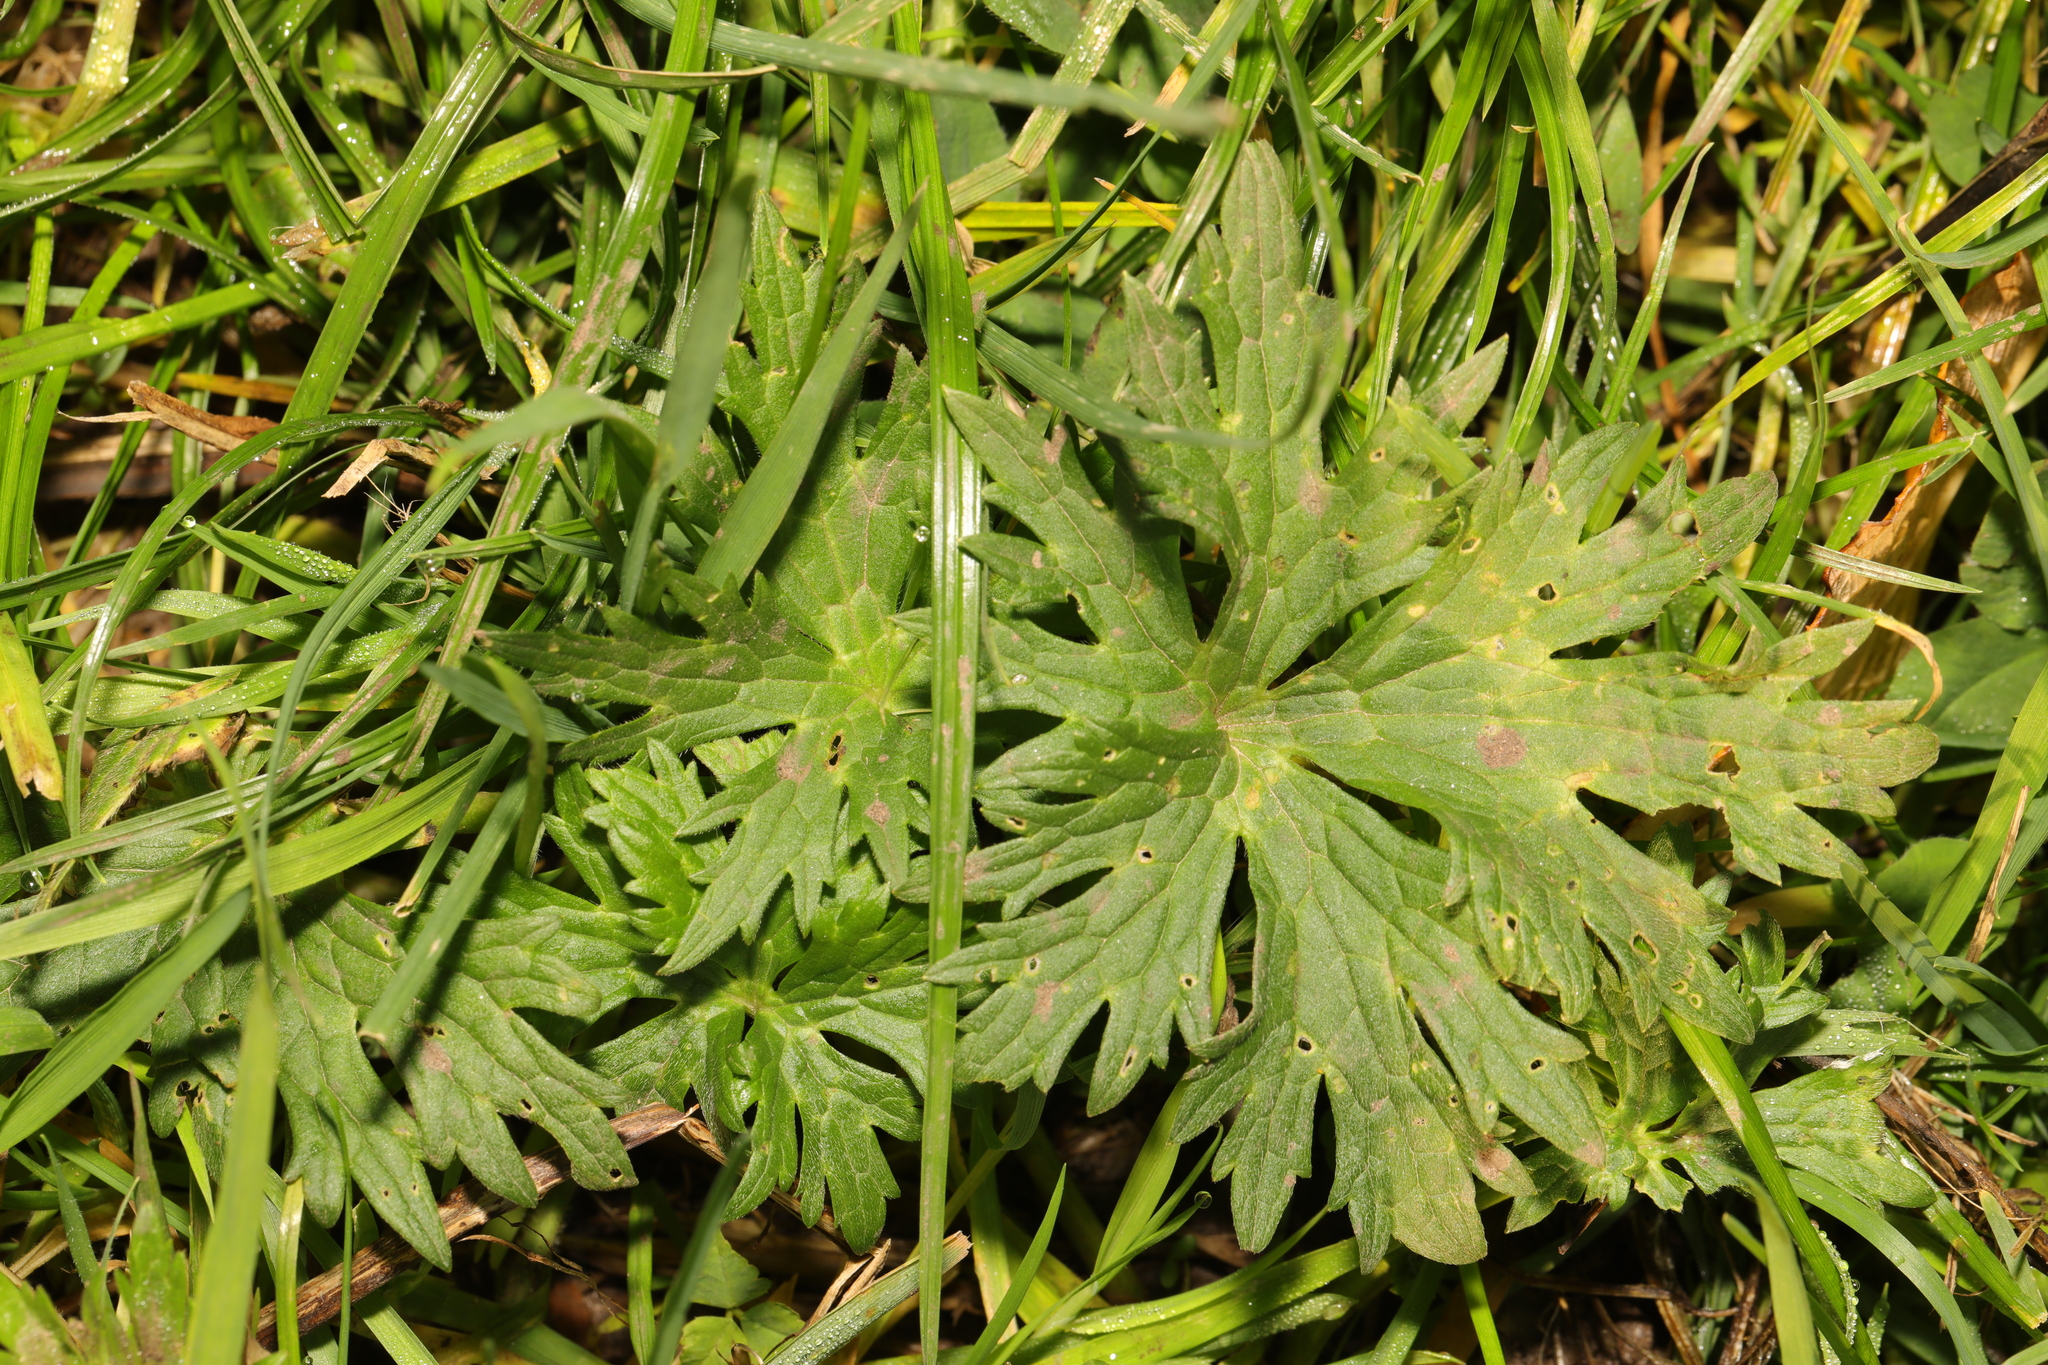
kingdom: Plantae
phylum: Tracheophyta
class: Magnoliopsida
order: Ranunculales
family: Ranunculaceae
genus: Ranunculus
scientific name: Ranunculus acris
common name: Meadow buttercup
